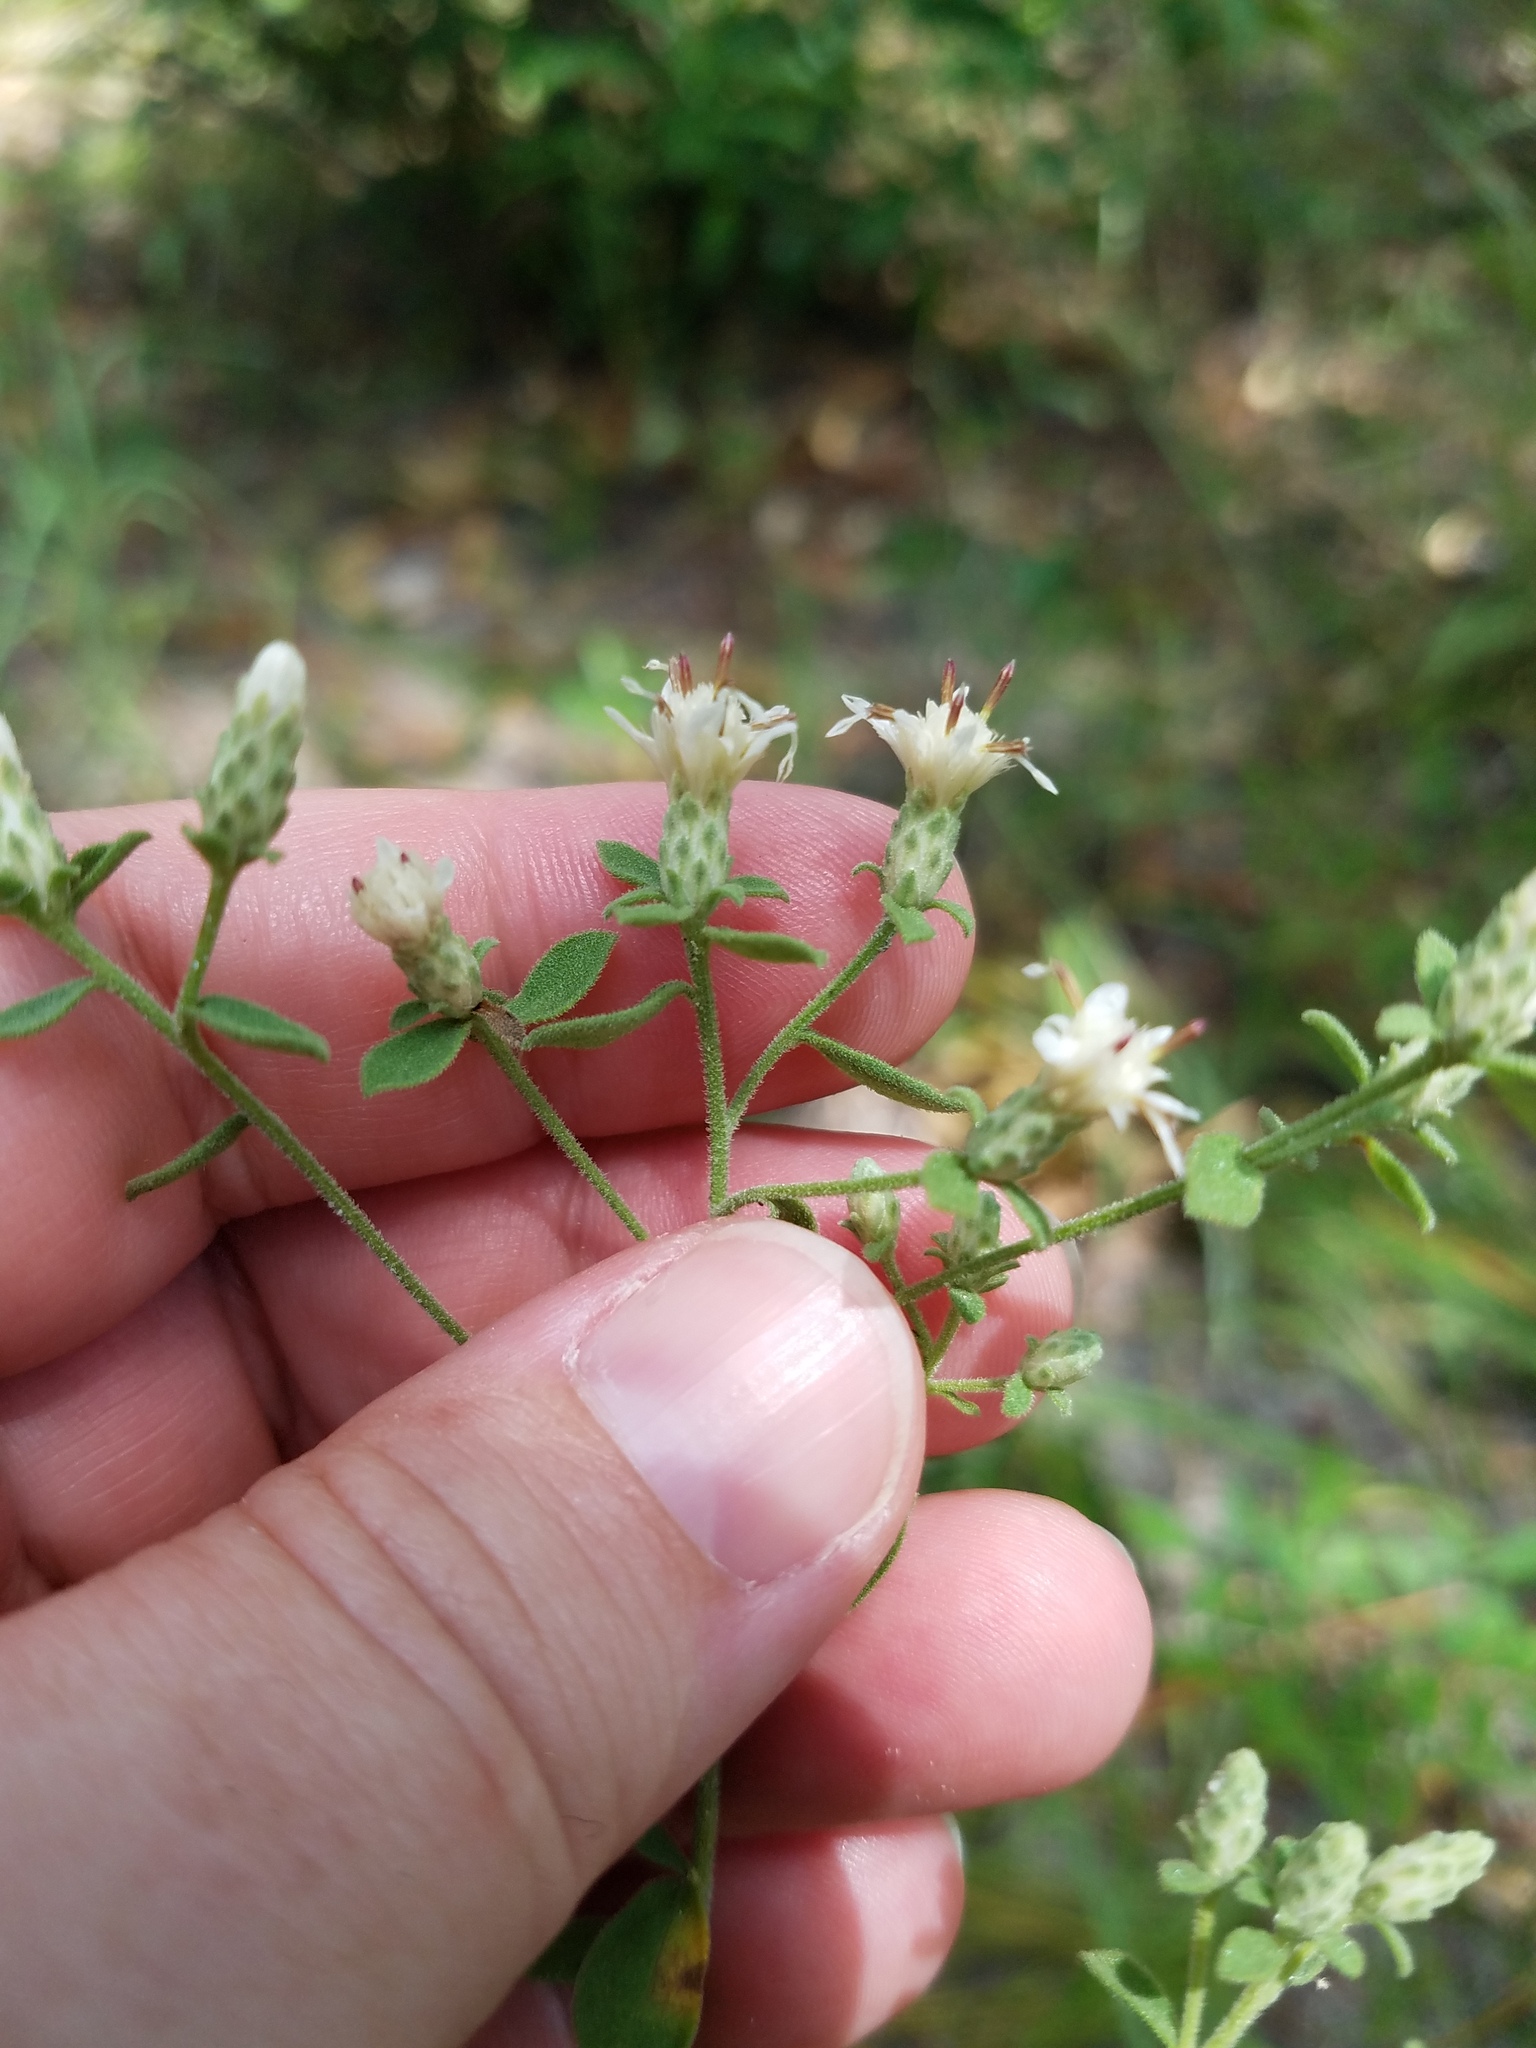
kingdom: Plantae
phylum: Tracheophyta
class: Magnoliopsida
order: Asterales
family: Asteraceae
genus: Sericocarpus
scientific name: Sericocarpus tortifolius
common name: Dixie aster
